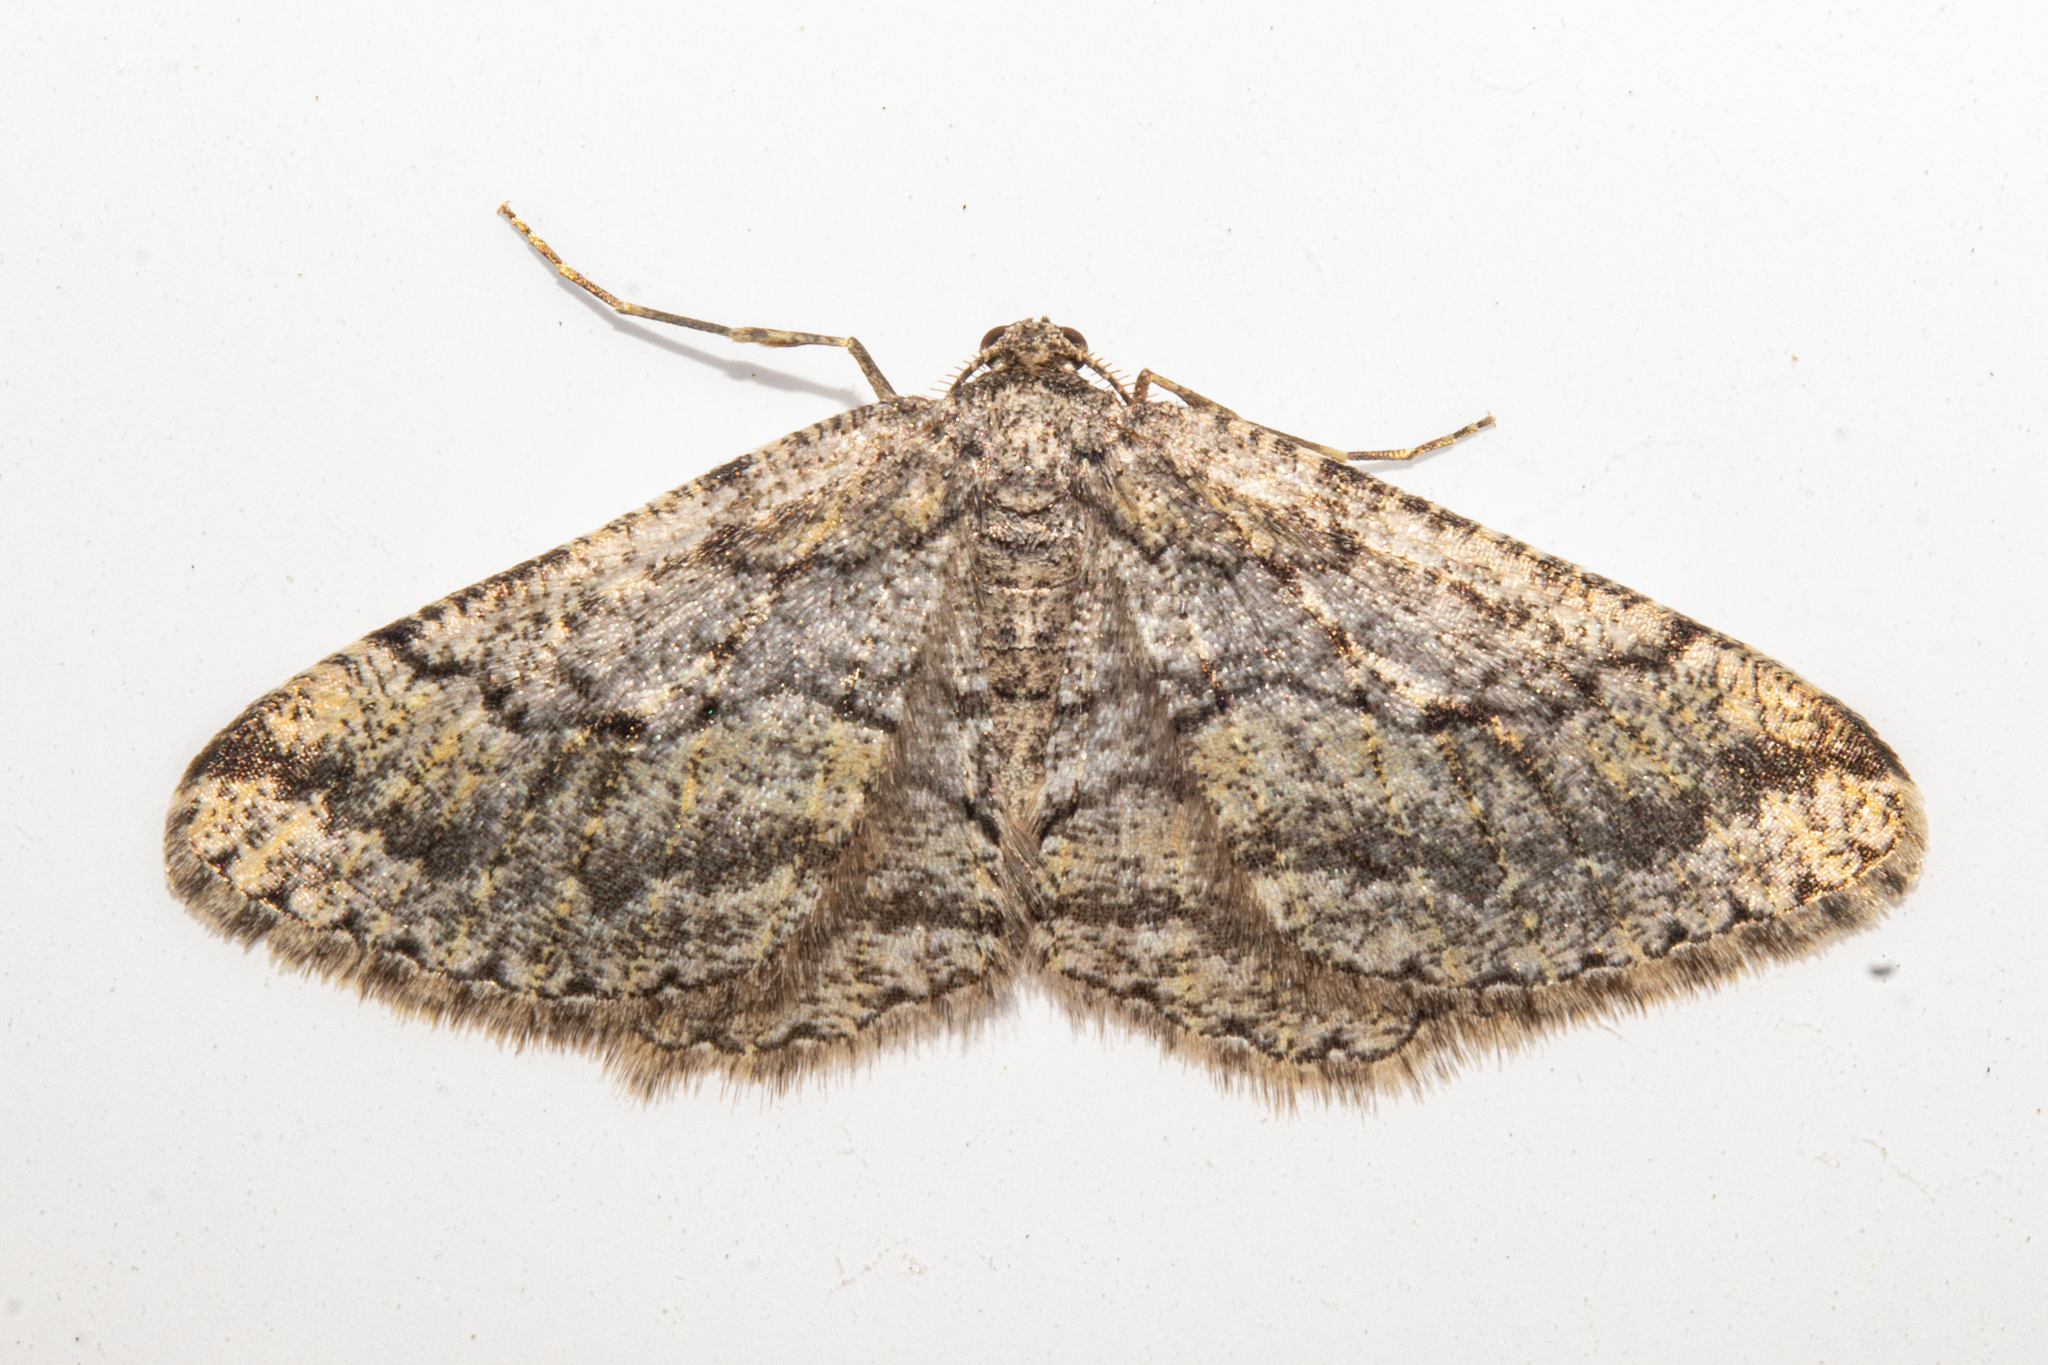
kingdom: Animalia
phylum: Arthropoda
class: Insecta
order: Lepidoptera
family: Geometridae
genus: Zermizinga
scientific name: Zermizinga indocilisaria
